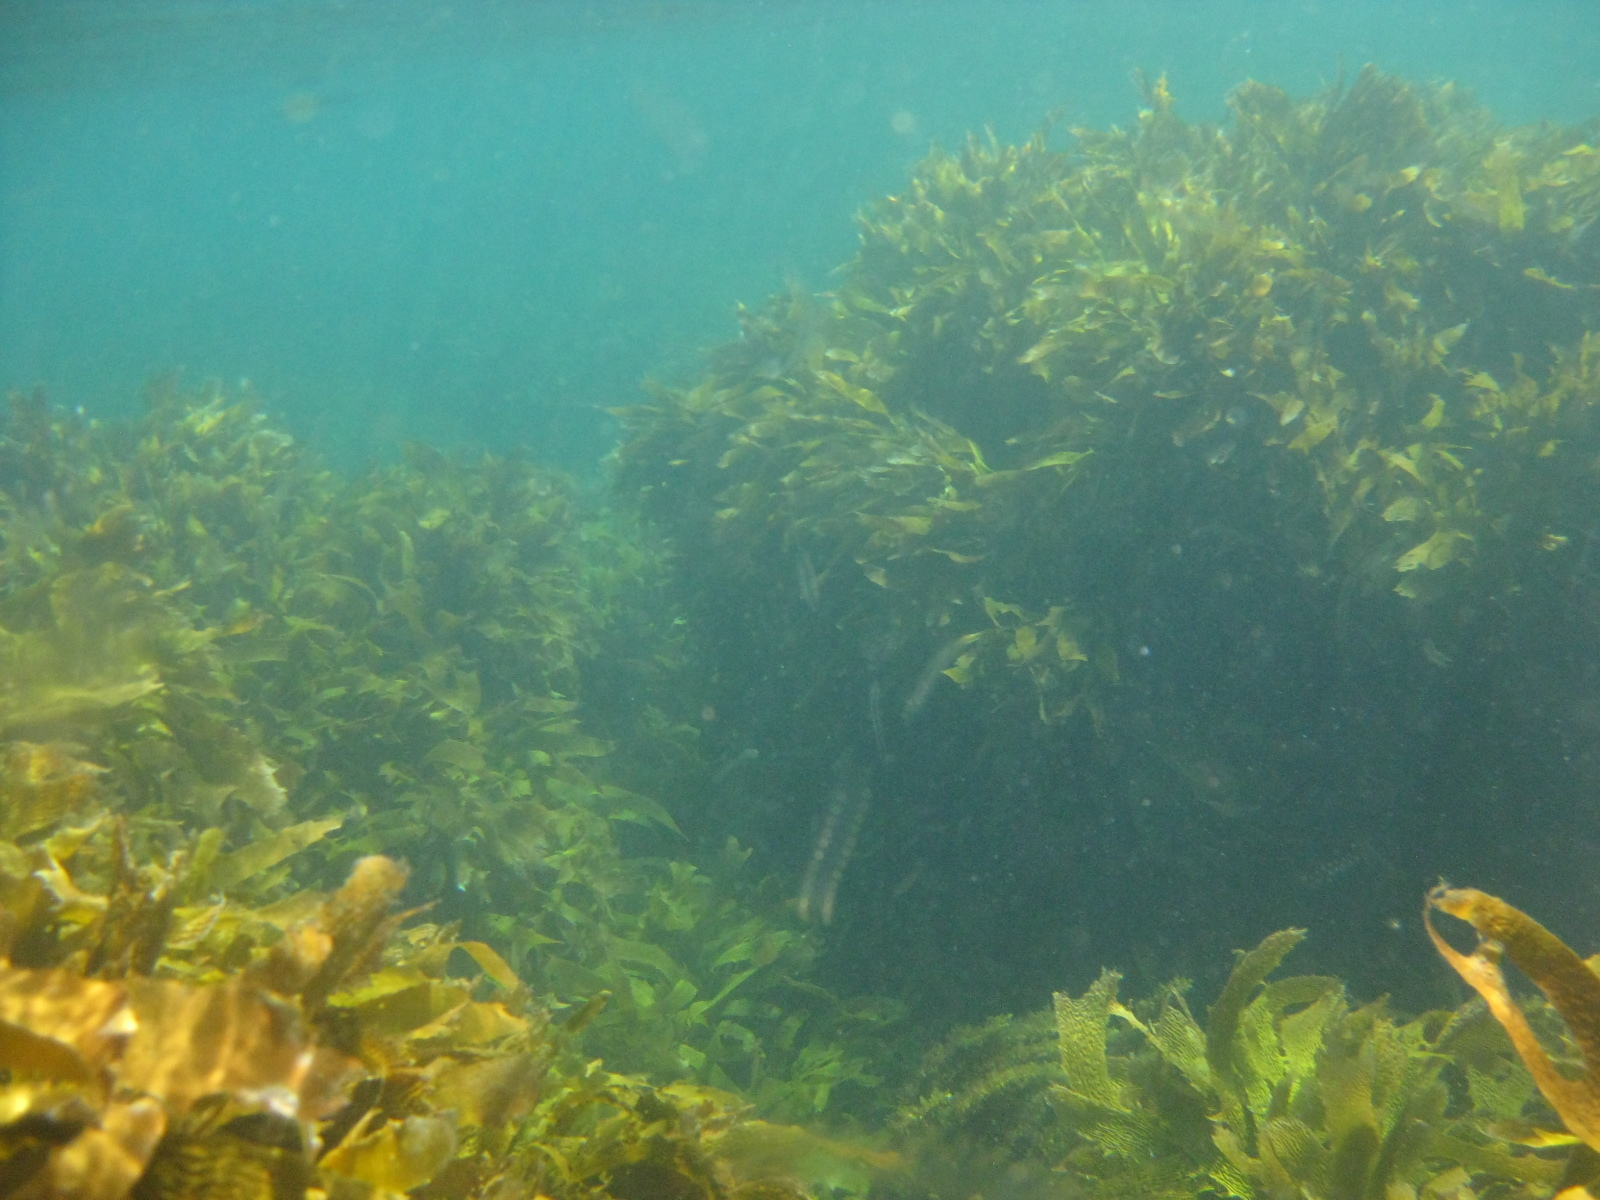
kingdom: Chromista
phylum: Ochrophyta
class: Phaeophyceae
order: Laminariales
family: Lessoniaceae
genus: Ecklonia
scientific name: Ecklonia radiata
